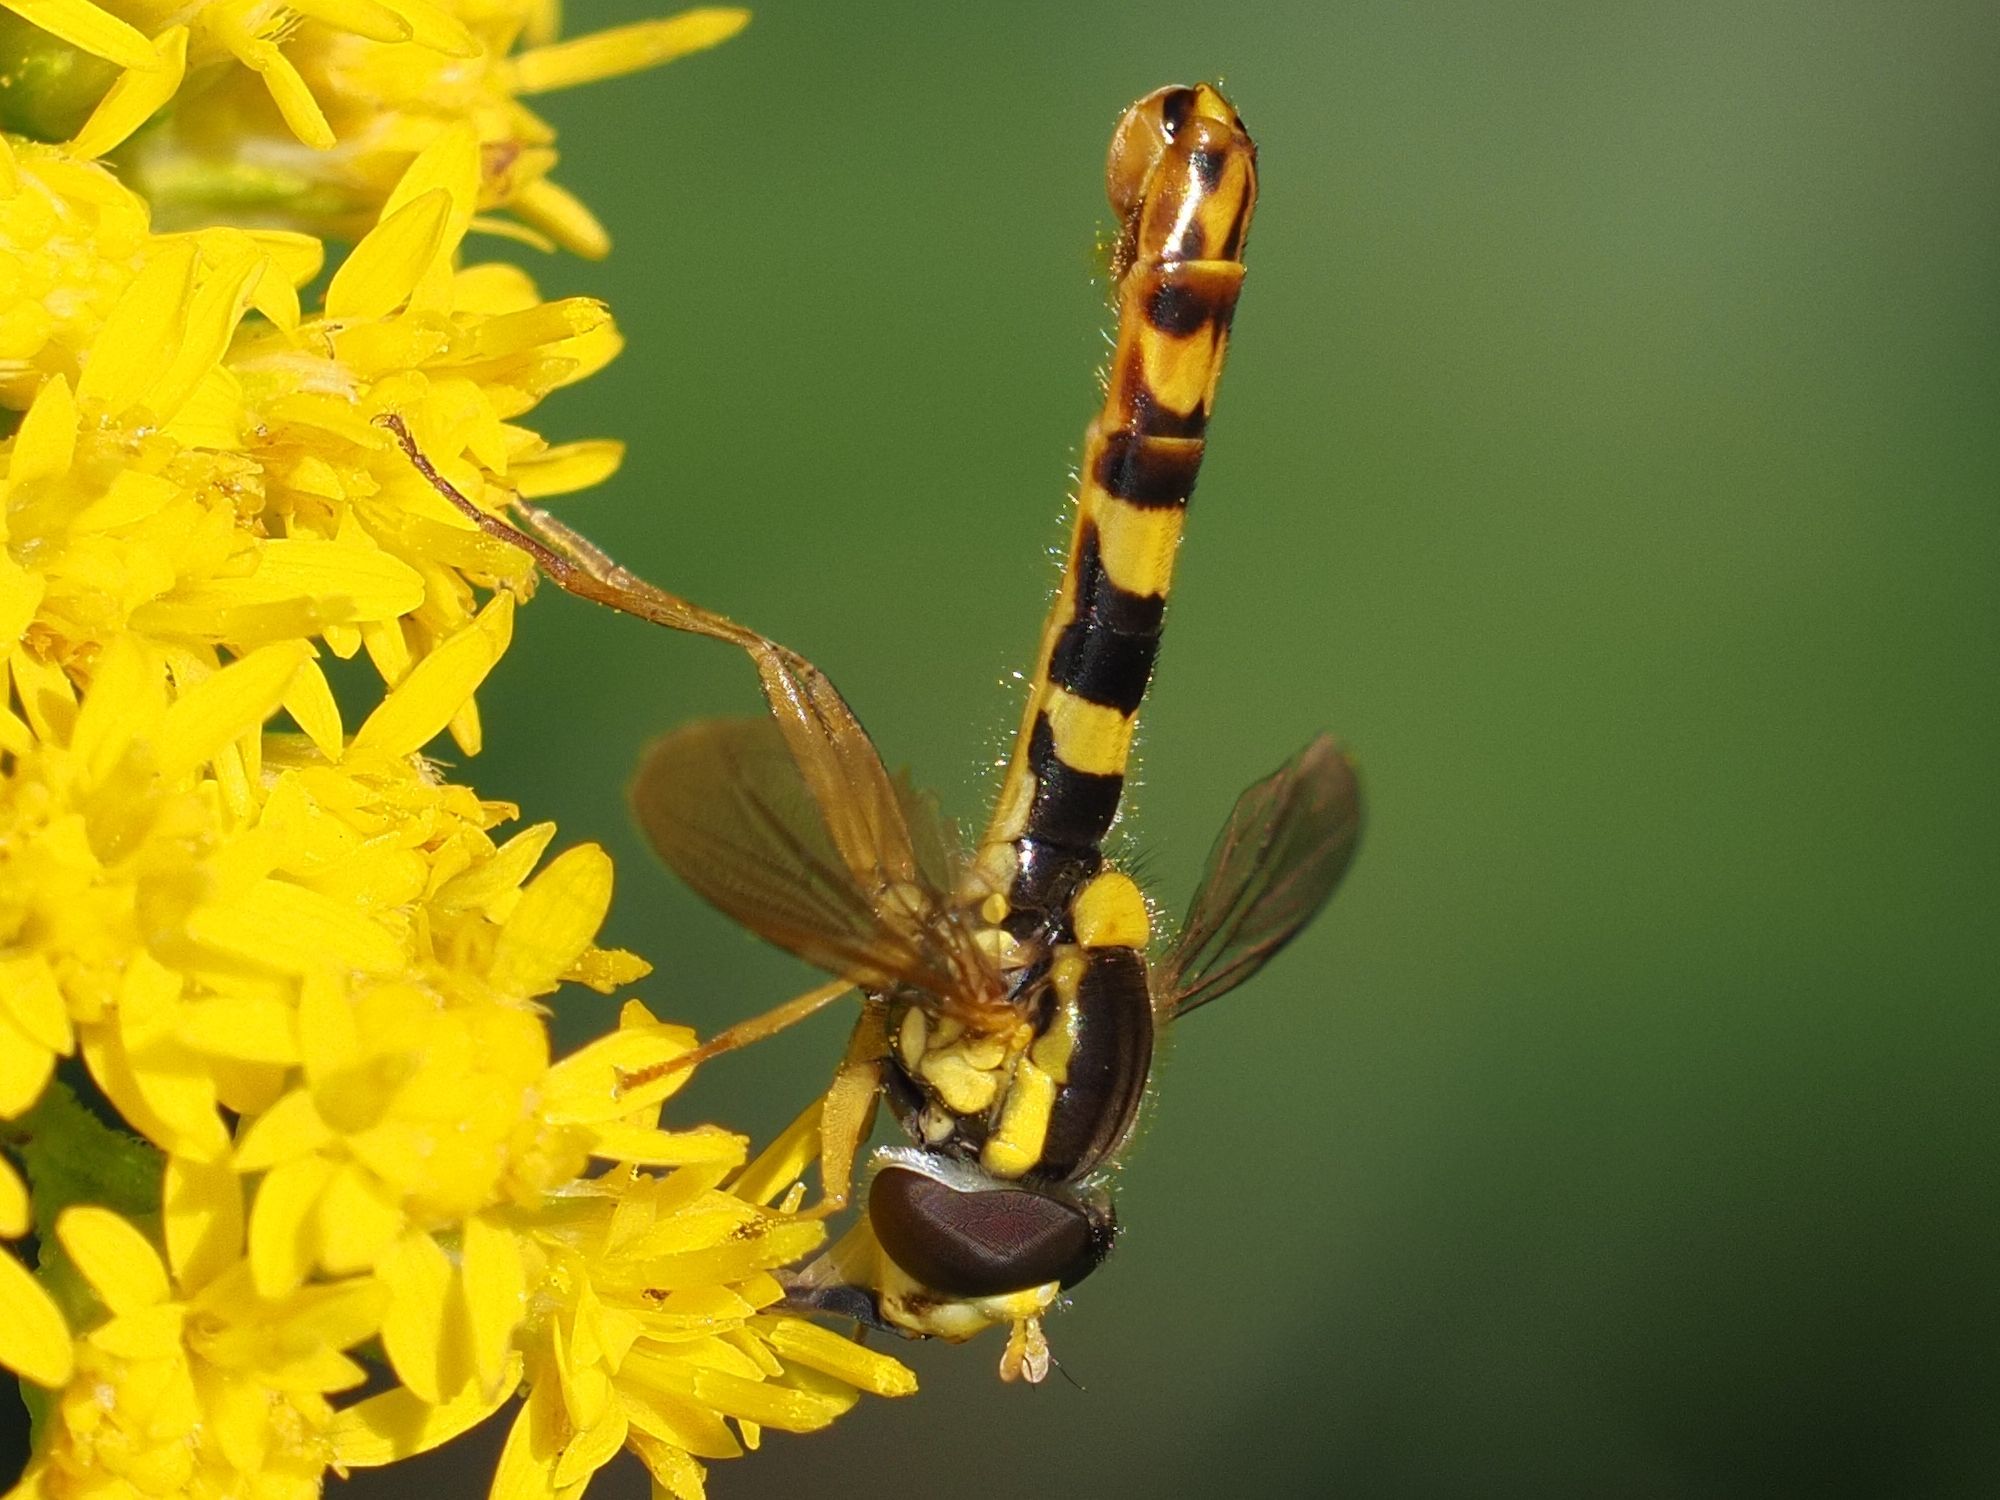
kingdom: Animalia
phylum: Arthropoda
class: Insecta
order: Diptera
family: Syrphidae
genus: Sphaerophoria
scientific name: Sphaerophoria scripta
